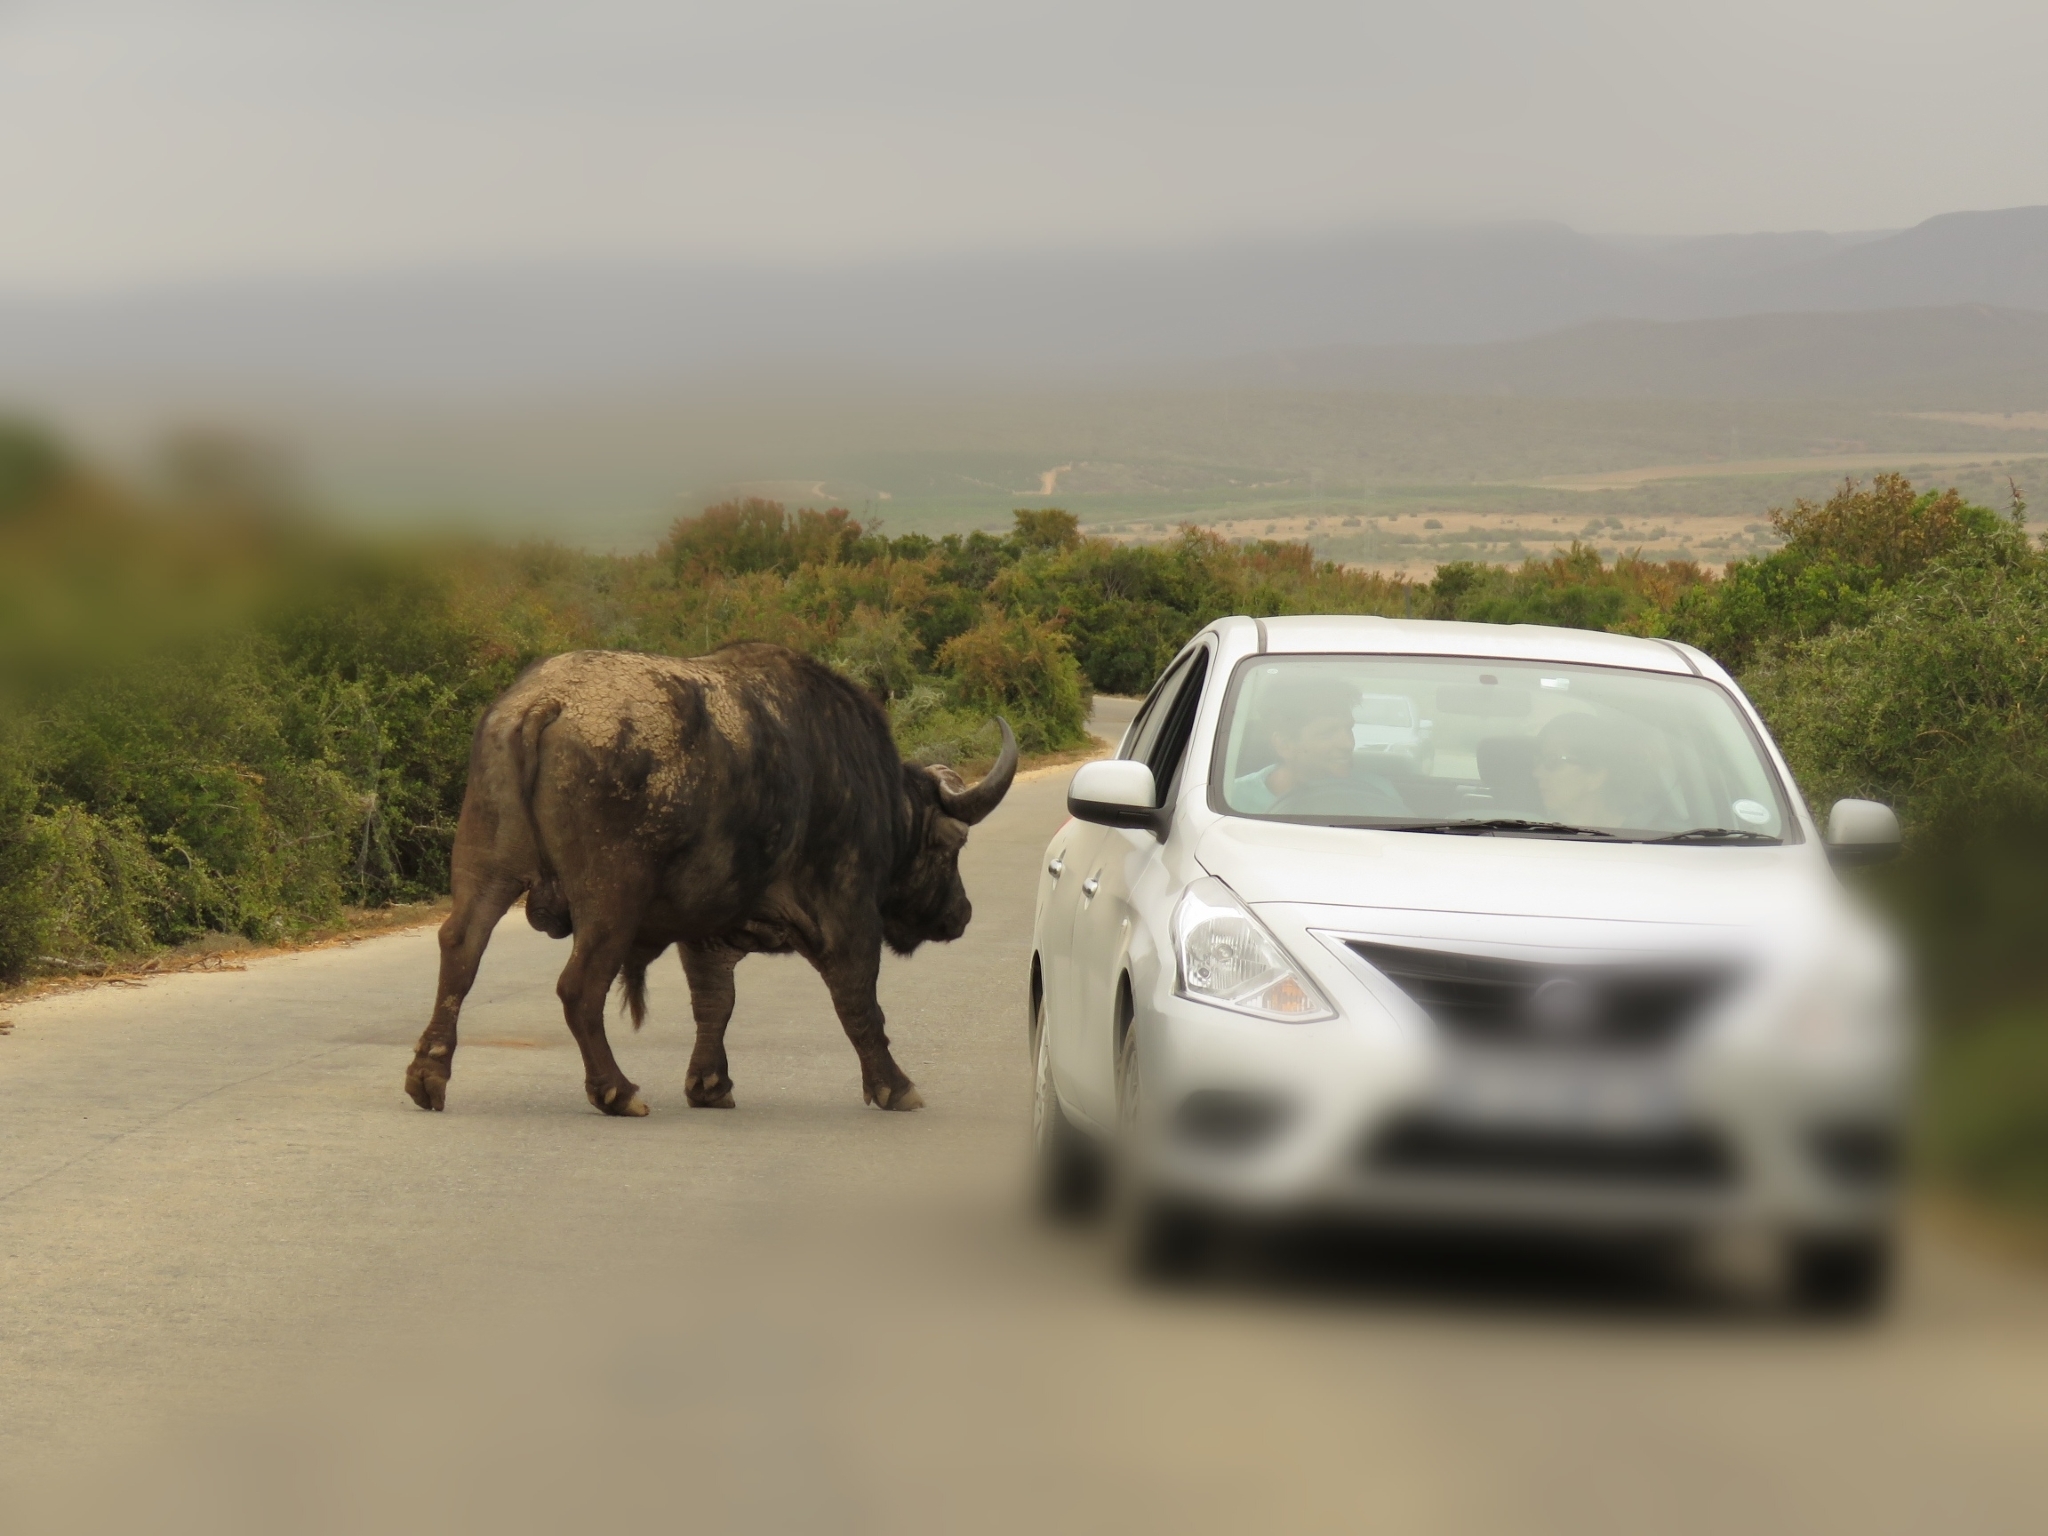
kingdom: Animalia
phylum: Chordata
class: Mammalia
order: Artiodactyla
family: Bovidae
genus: Syncerus
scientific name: Syncerus caffer
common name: African buffalo
